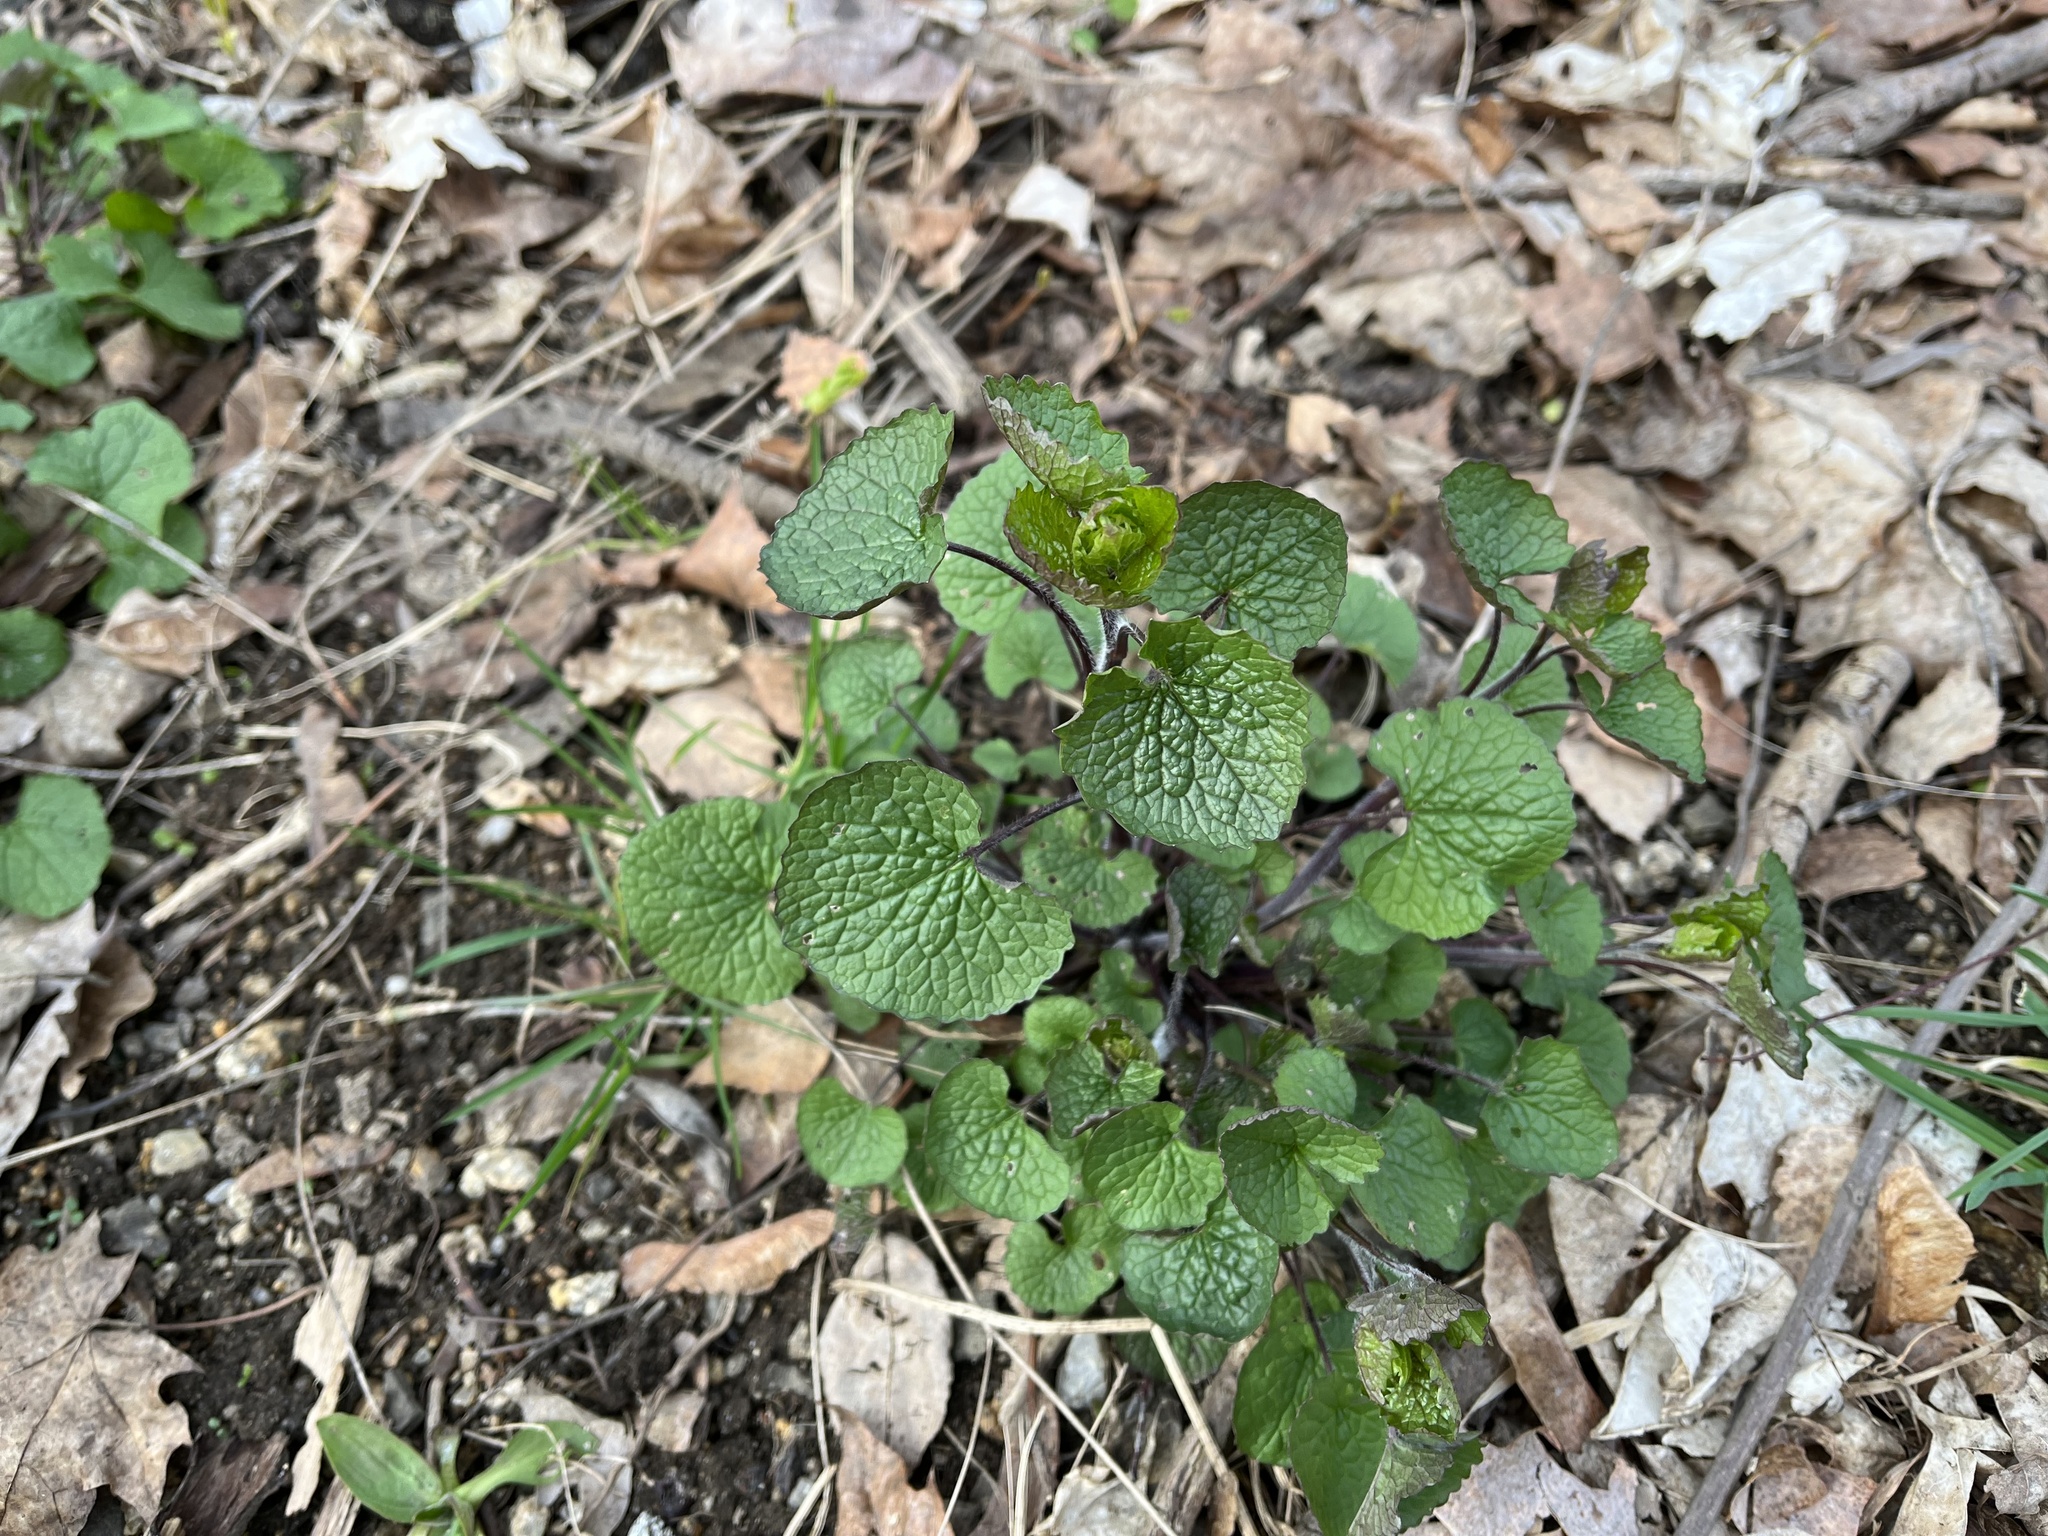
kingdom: Plantae
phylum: Tracheophyta
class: Magnoliopsida
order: Brassicales
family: Brassicaceae
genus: Alliaria
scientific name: Alliaria petiolata
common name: Garlic mustard
